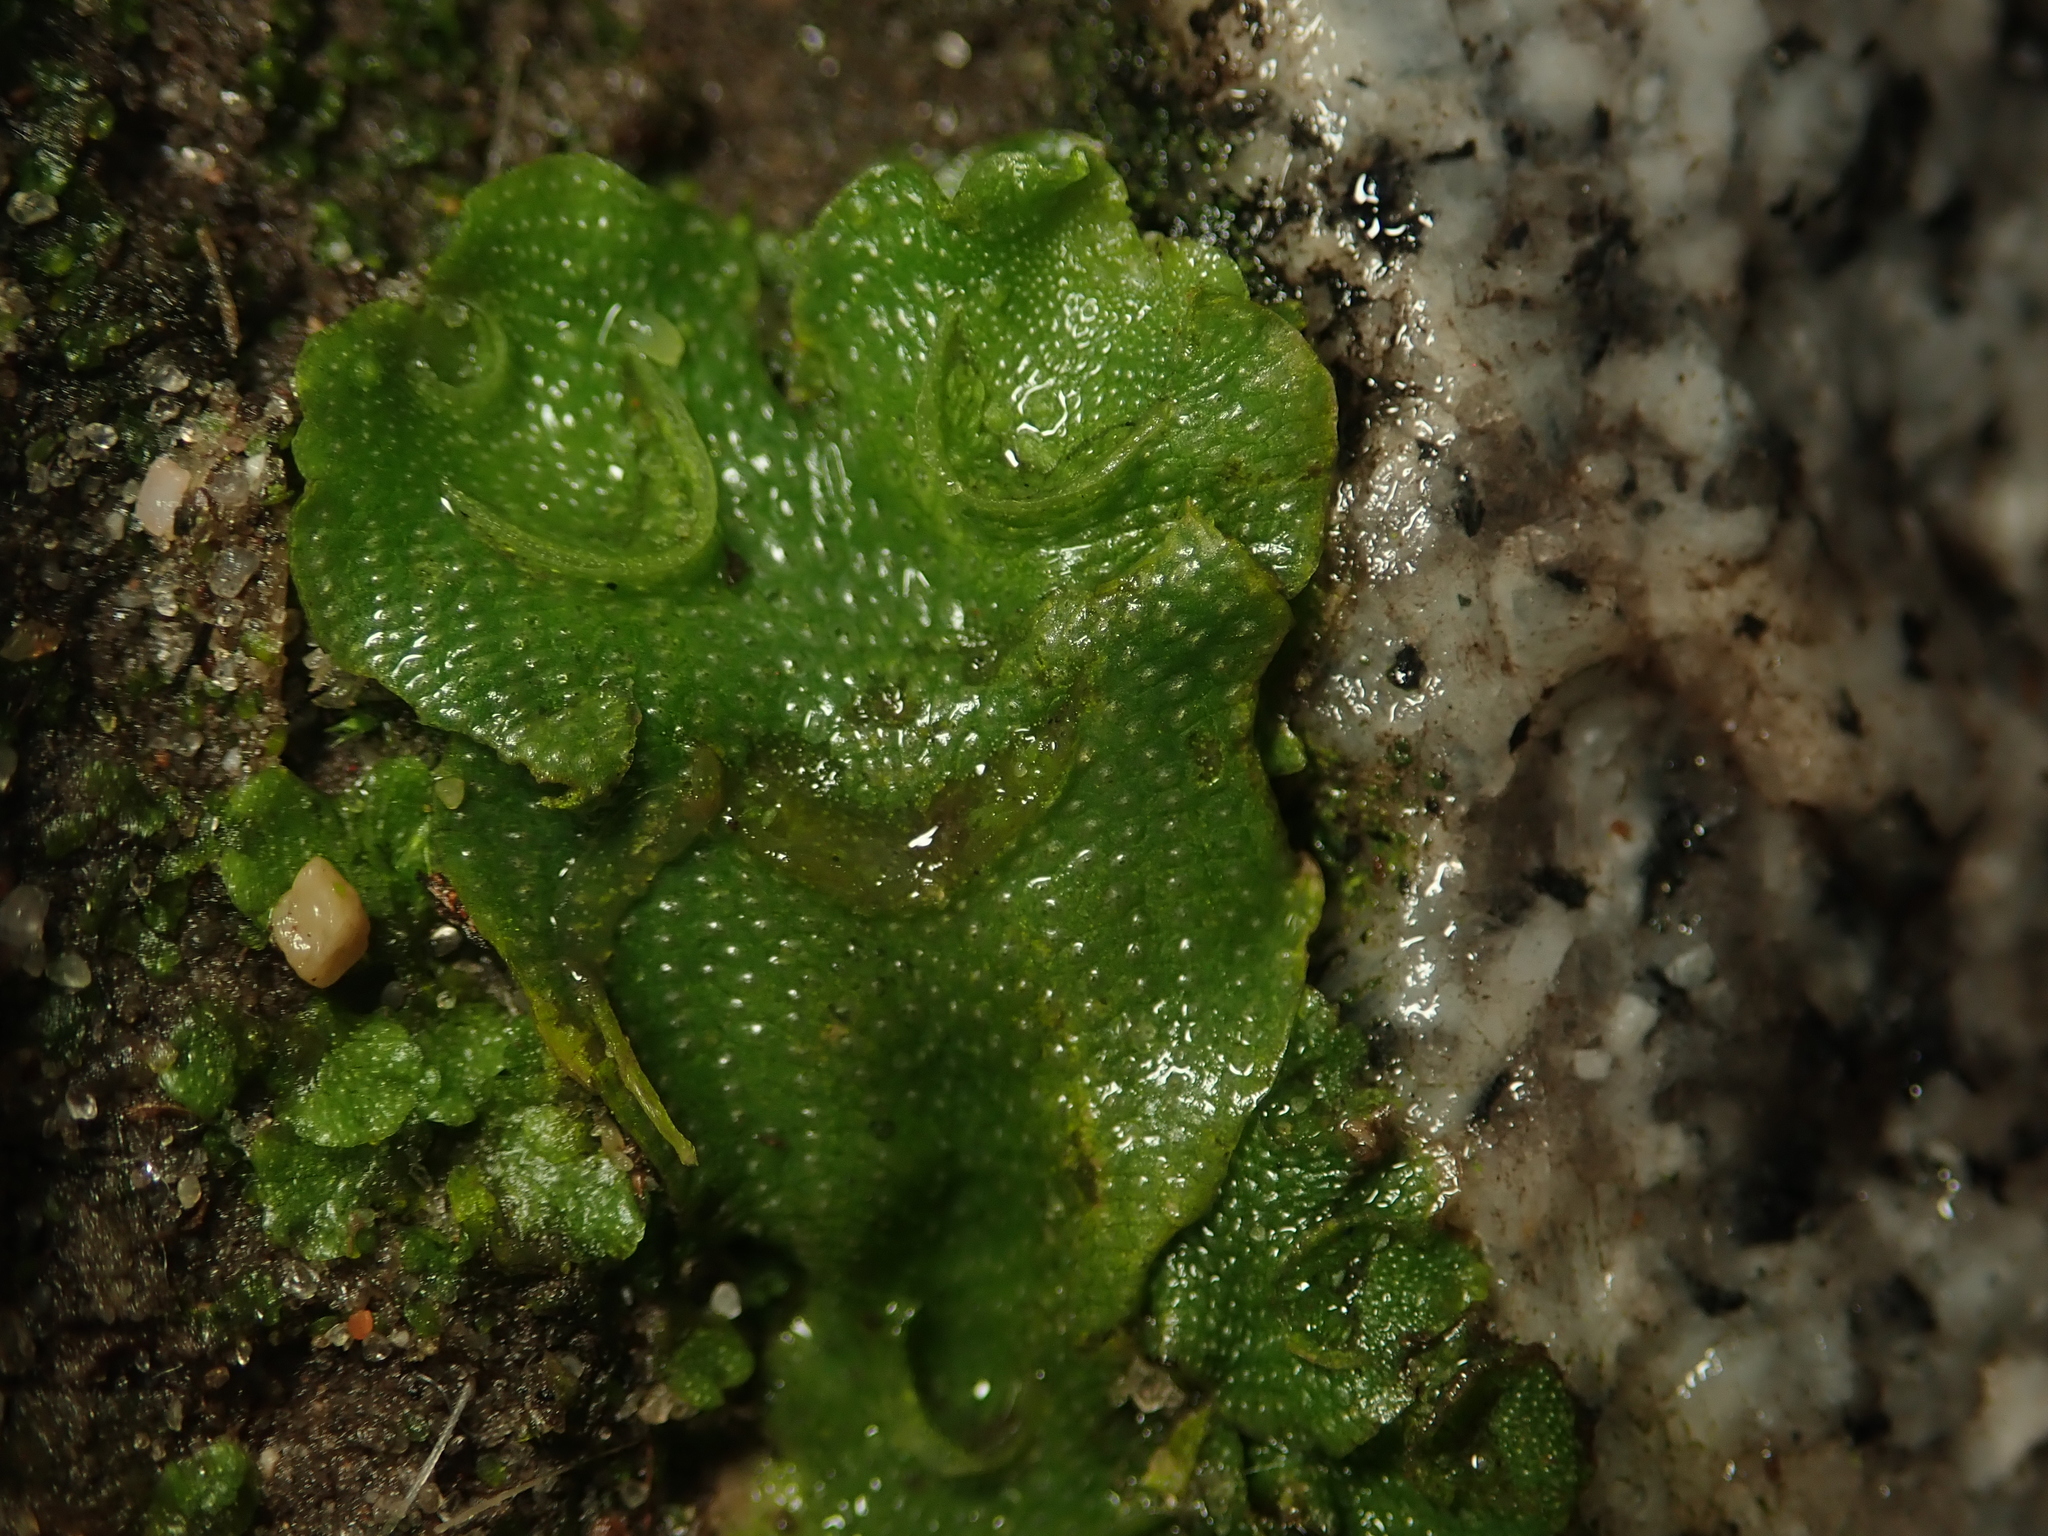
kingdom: Plantae
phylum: Marchantiophyta
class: Marchantiopsida
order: Lunulariales
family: Lunulariaceae
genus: Lunularia
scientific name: Lunularia cruciata
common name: Crescent-cup liverwort
